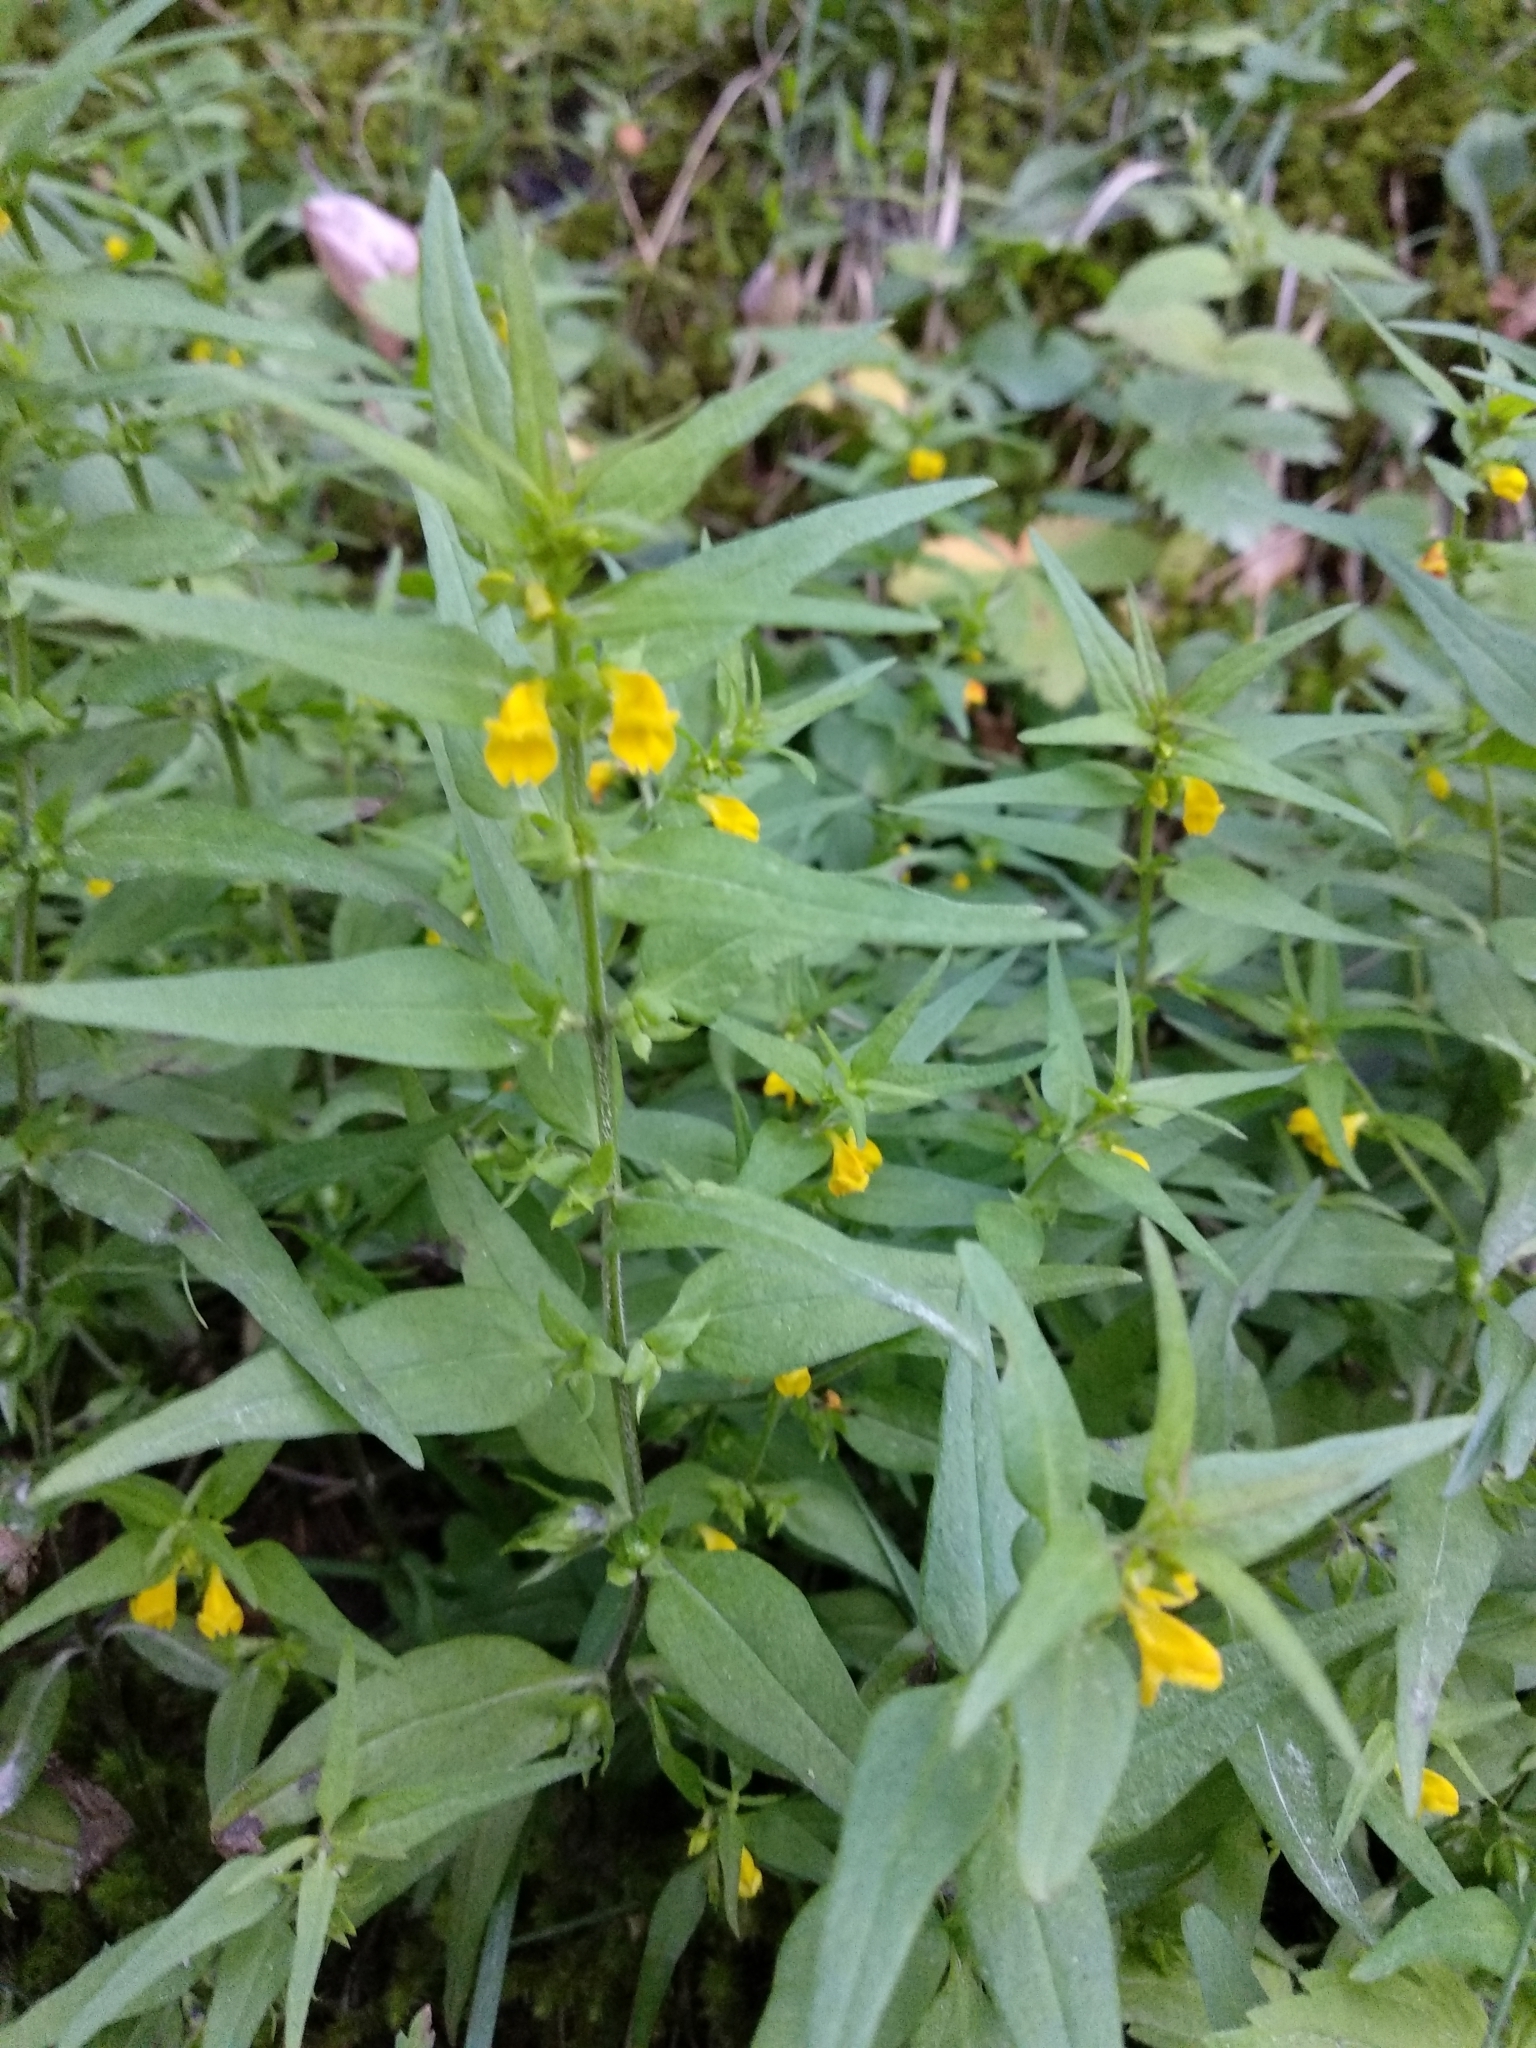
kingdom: Plantae
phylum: Tracheophyta
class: Magnoliopsida
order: Lamiales
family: Orobanchaceae
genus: Melampyrum
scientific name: Melampyrum sylvaticum
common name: Small cow-wheat
